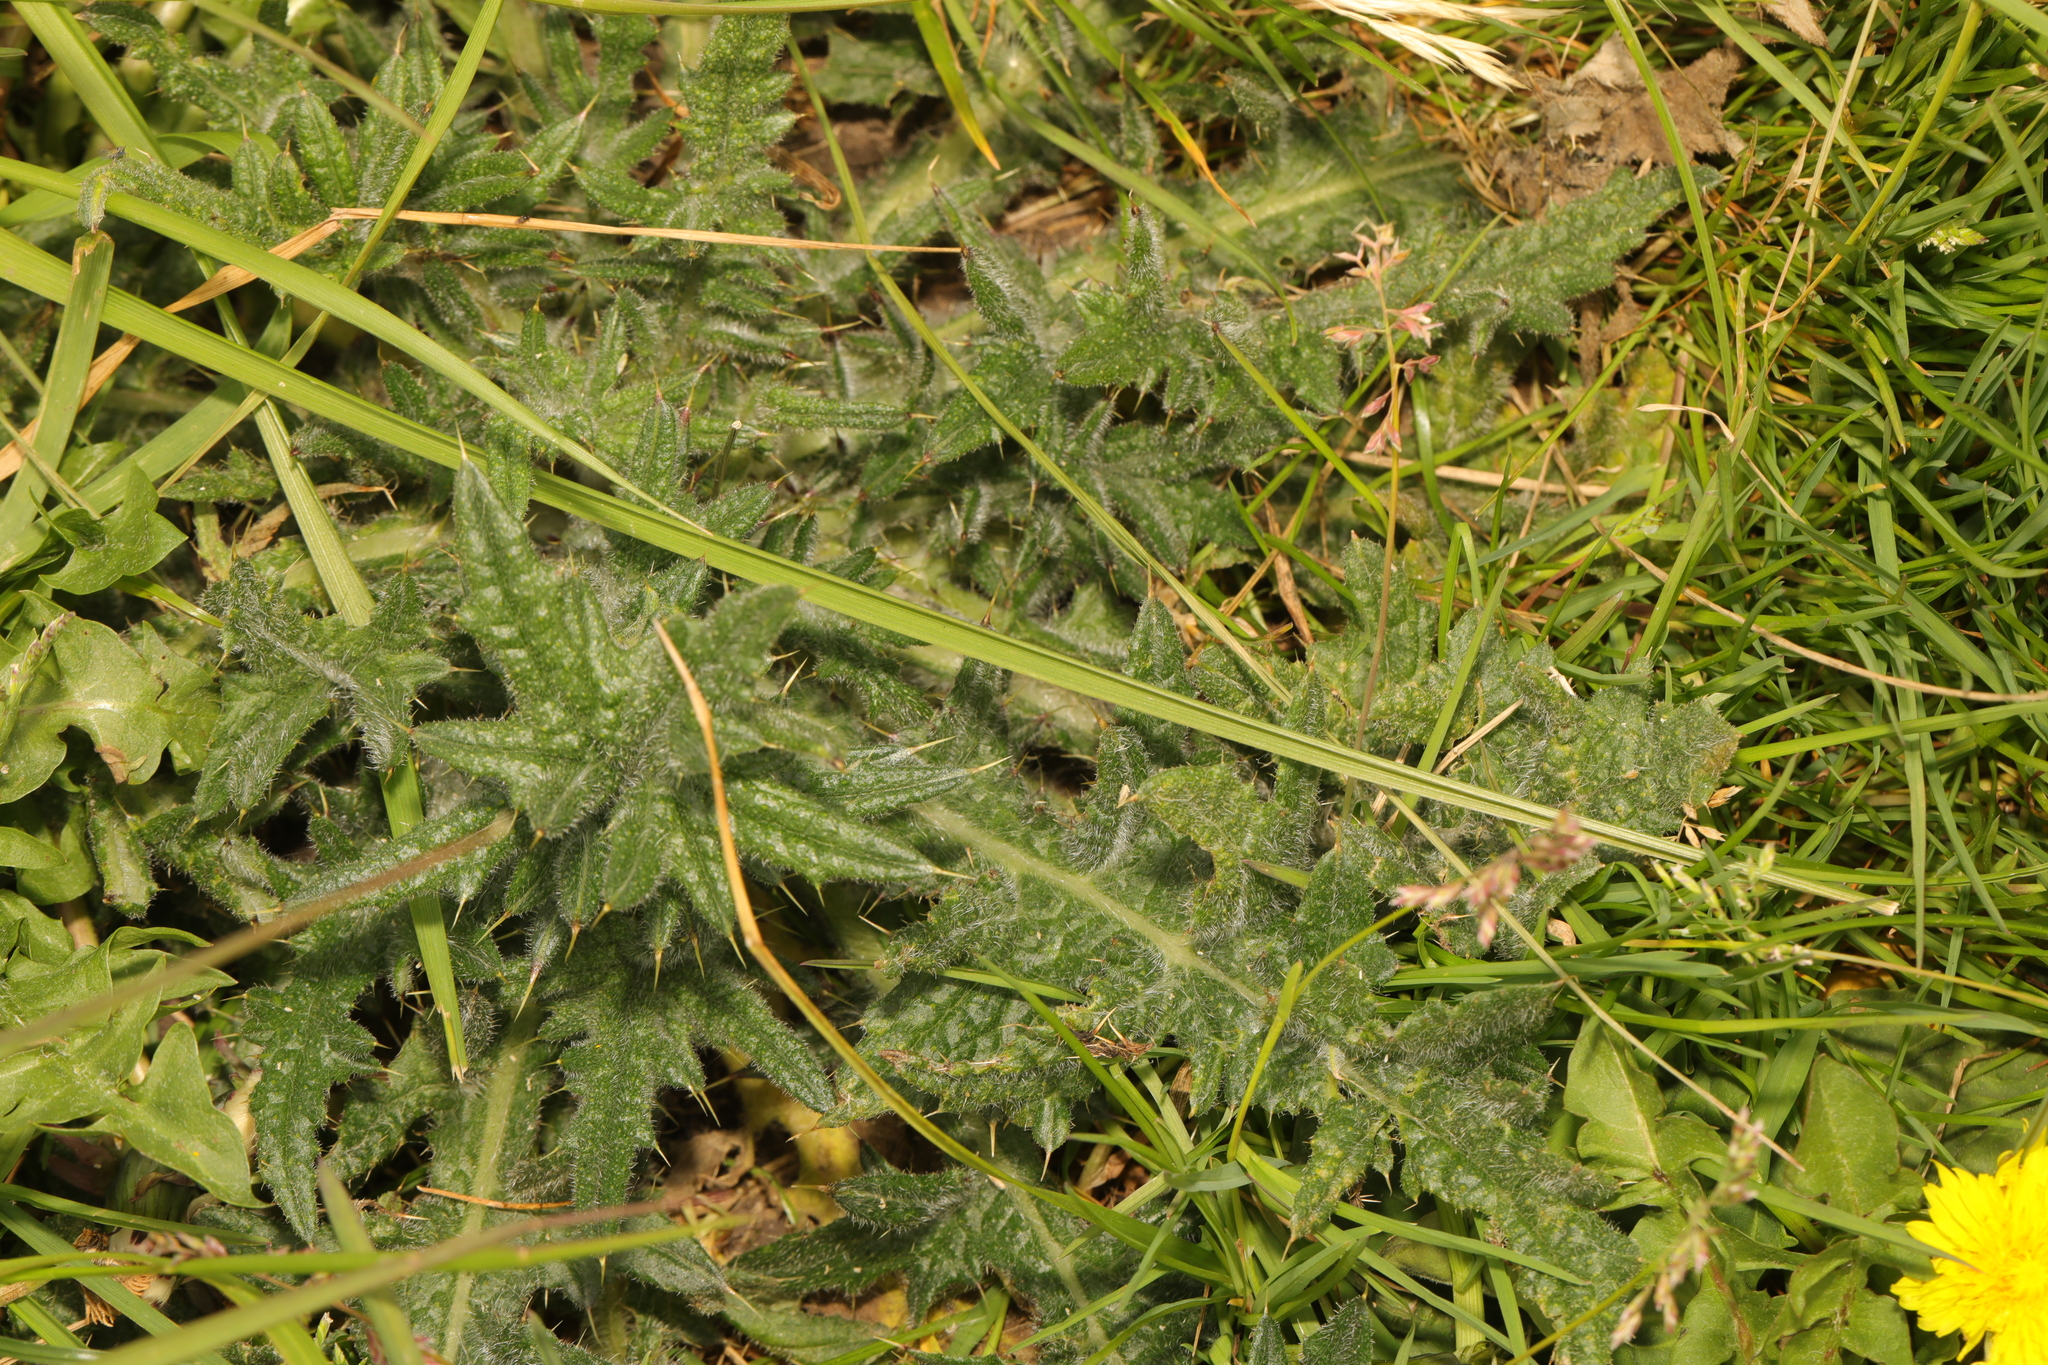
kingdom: Plantae
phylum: Tracheophyta
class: Magnoliopsida
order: Asterales
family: Asteraceae
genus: Cirsium
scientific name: Cirsium vulgare
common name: Bull thistle
